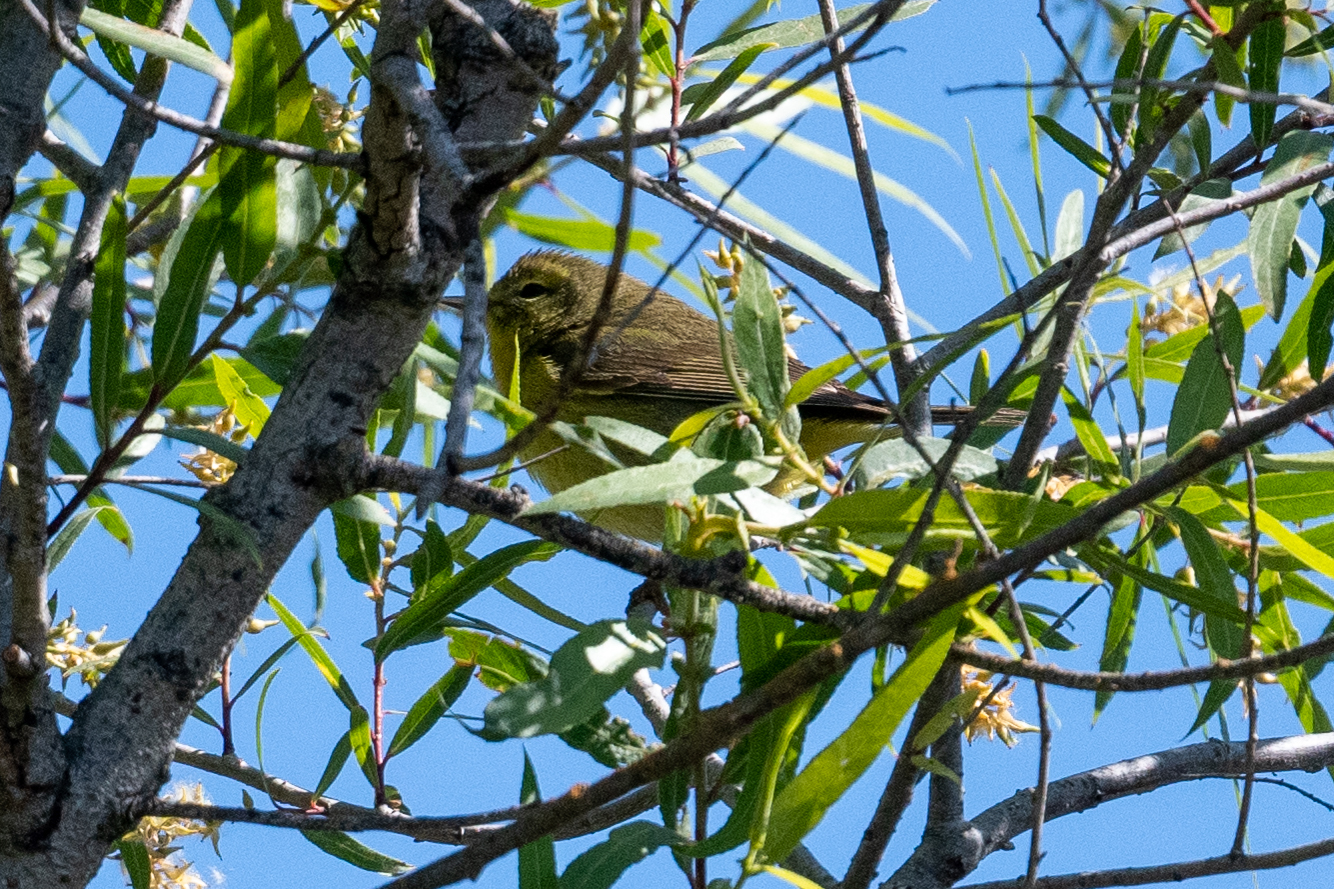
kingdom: Animalia
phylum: Chordata
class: Aves
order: Passeriformes
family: Parulidae
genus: Leiothlypis
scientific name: Leiothlypis celata
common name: Orange-crowned warbler
